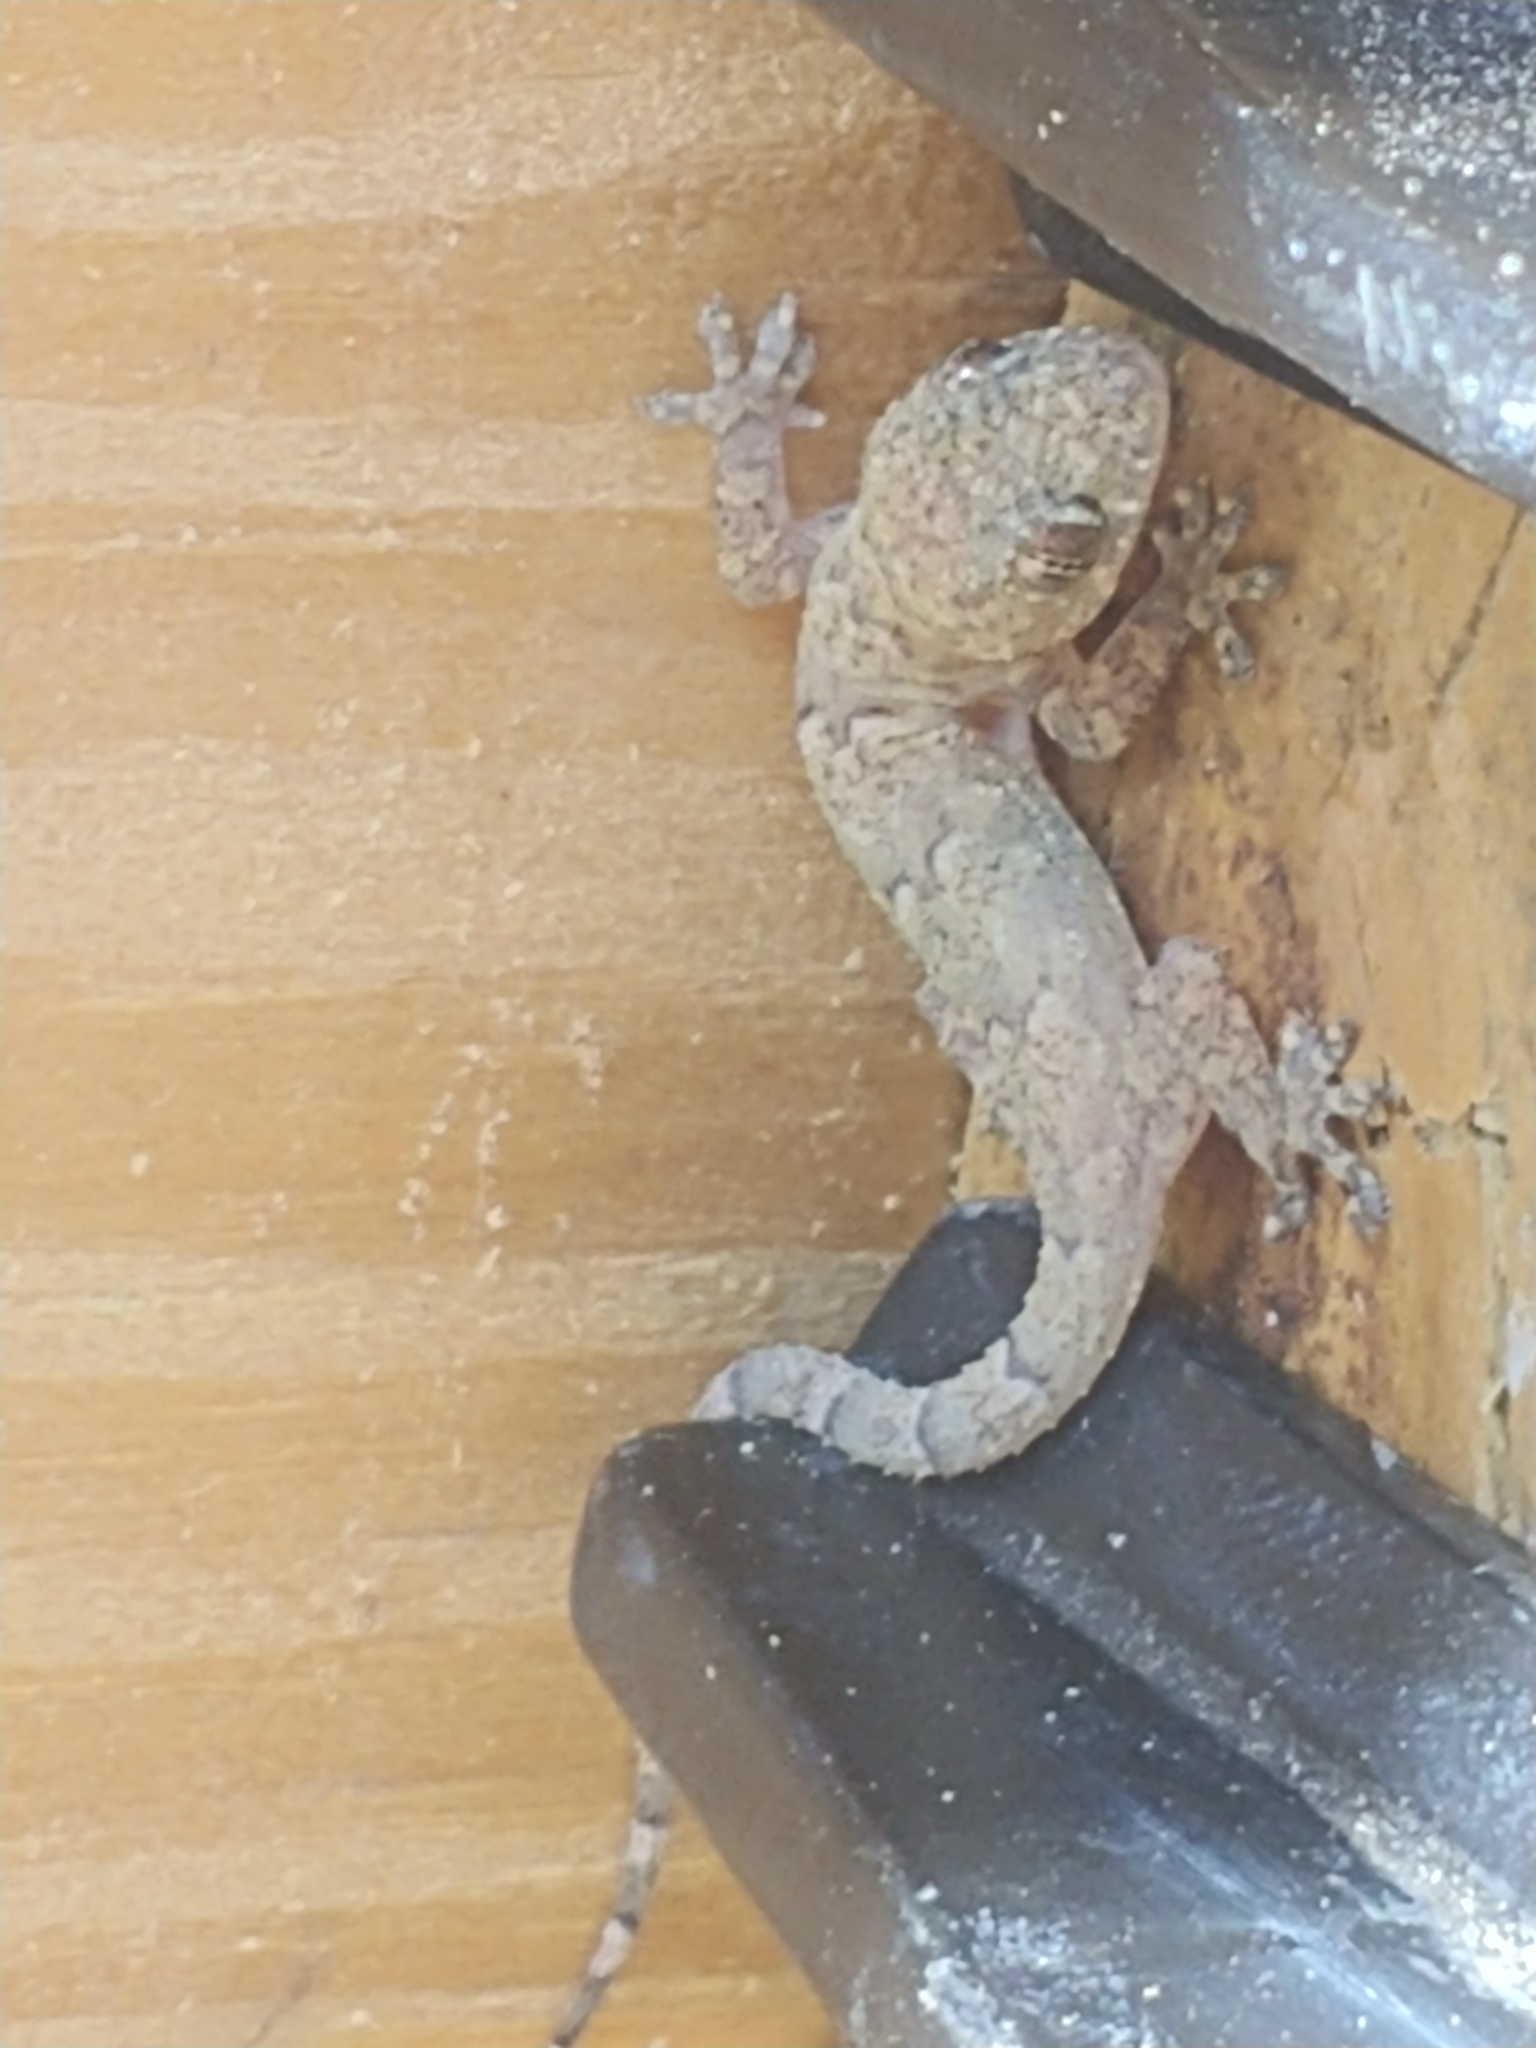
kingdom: Animalia
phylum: Chordata
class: Squamata
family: Gekkonidae
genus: Hemidactylus
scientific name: Hemidactylus mabouia
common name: House gecko
